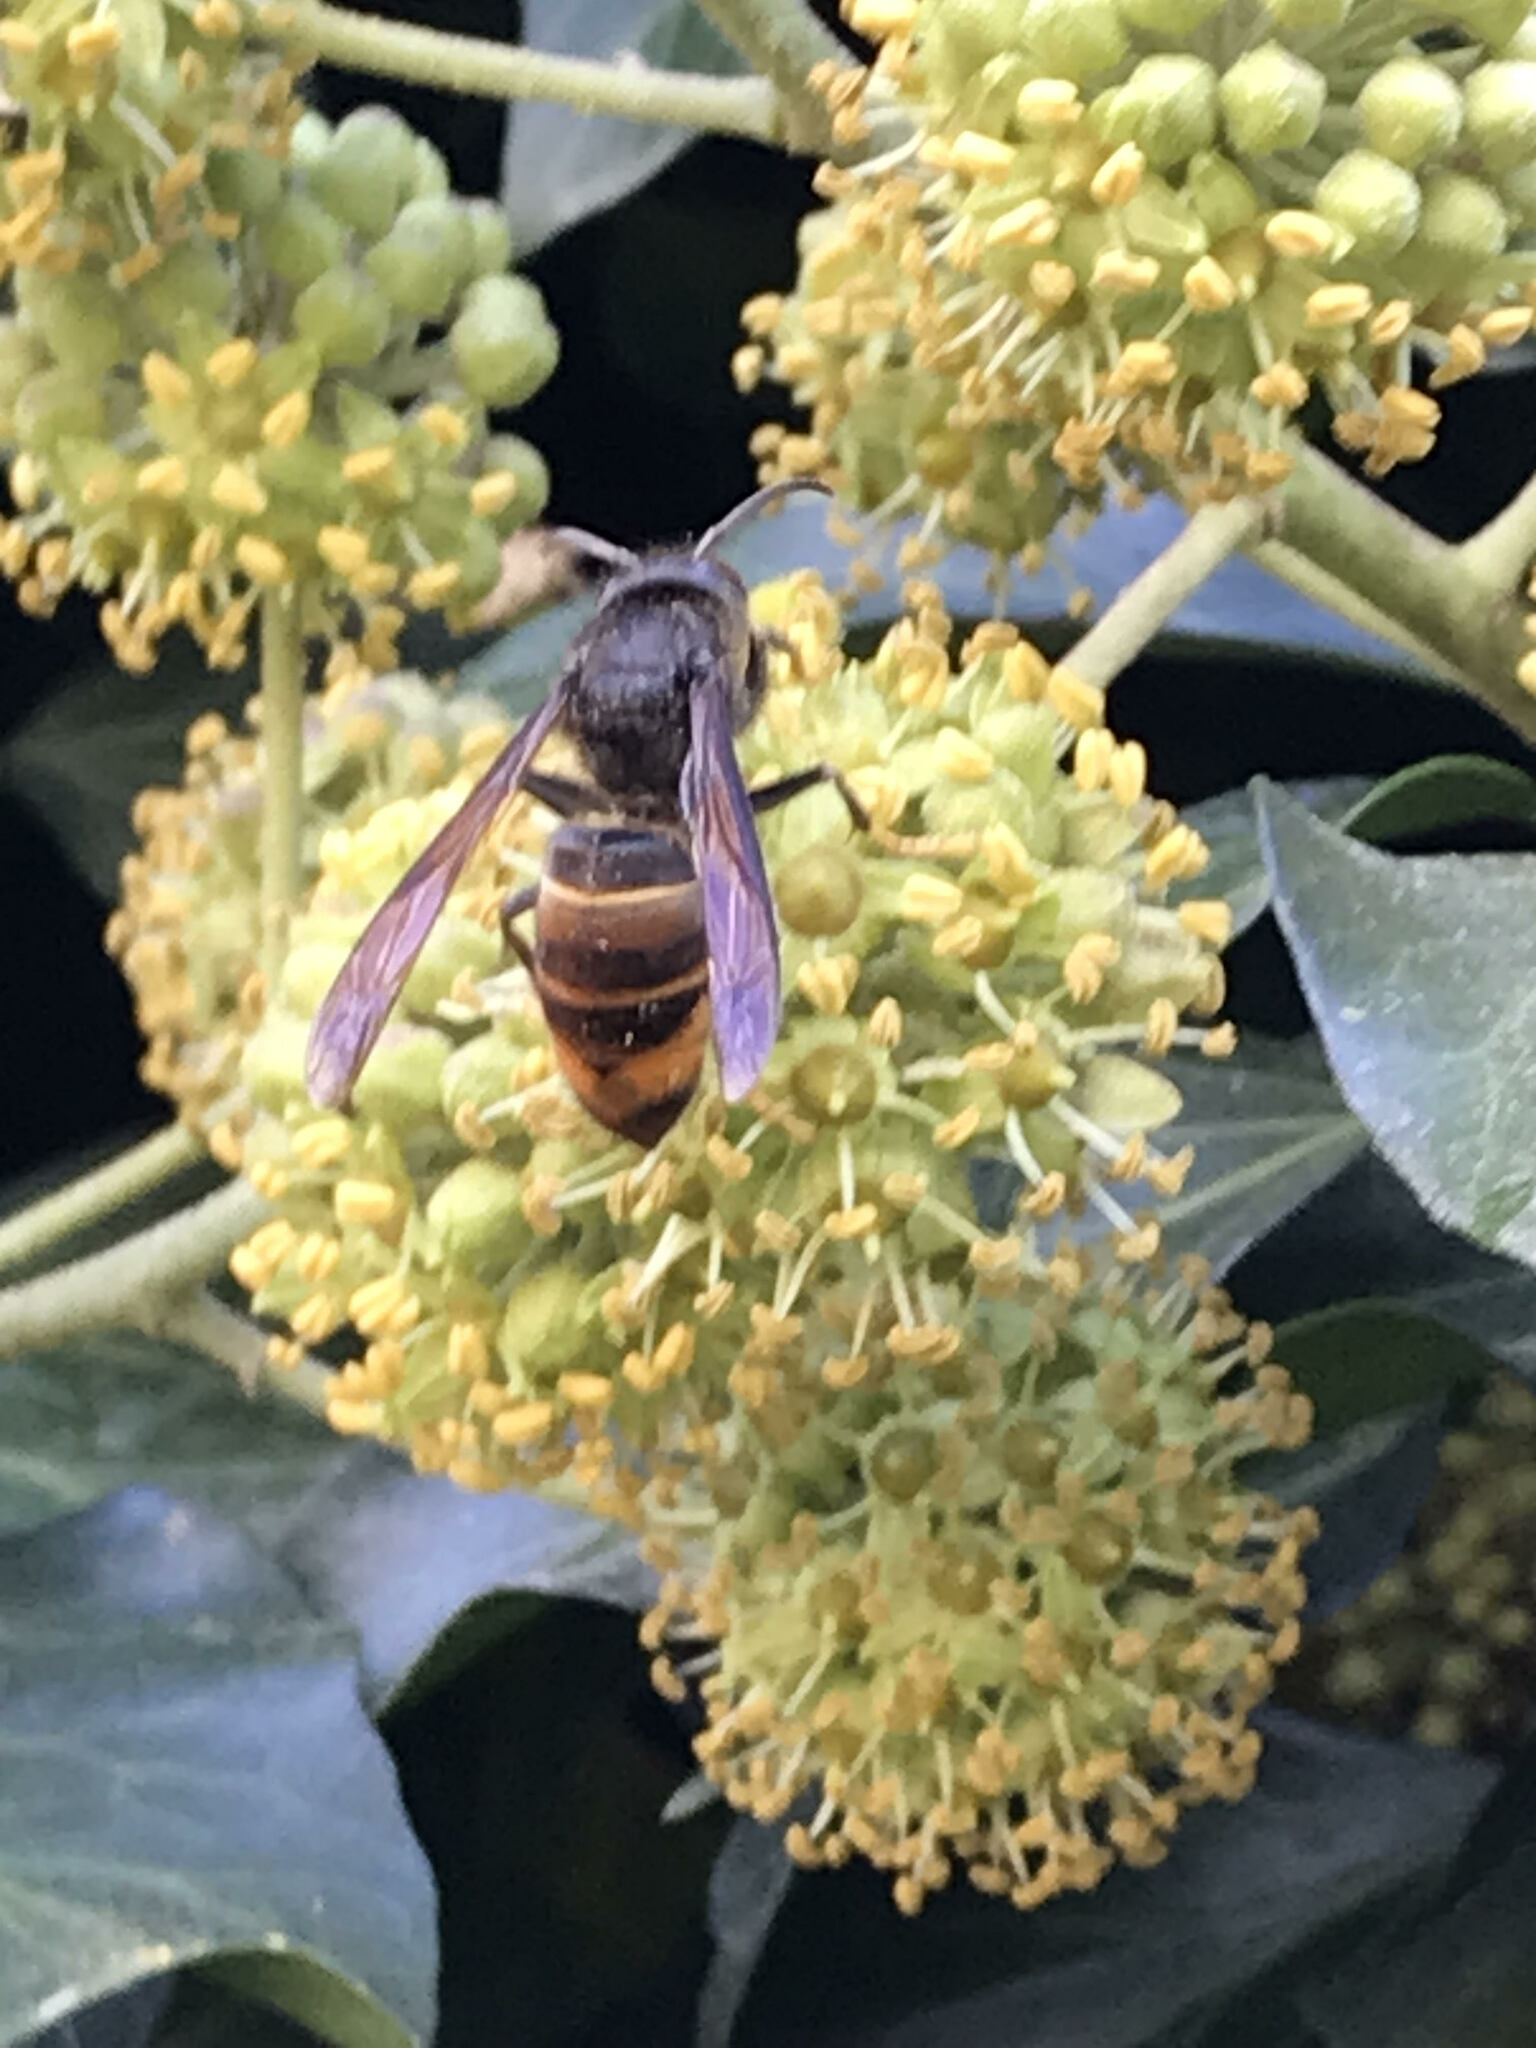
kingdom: Animalia
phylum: Arthropoda
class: Insecta
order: Hymenoptera
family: Vespidae
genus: Vespa
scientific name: Vespa velutina
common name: Asian hornet
